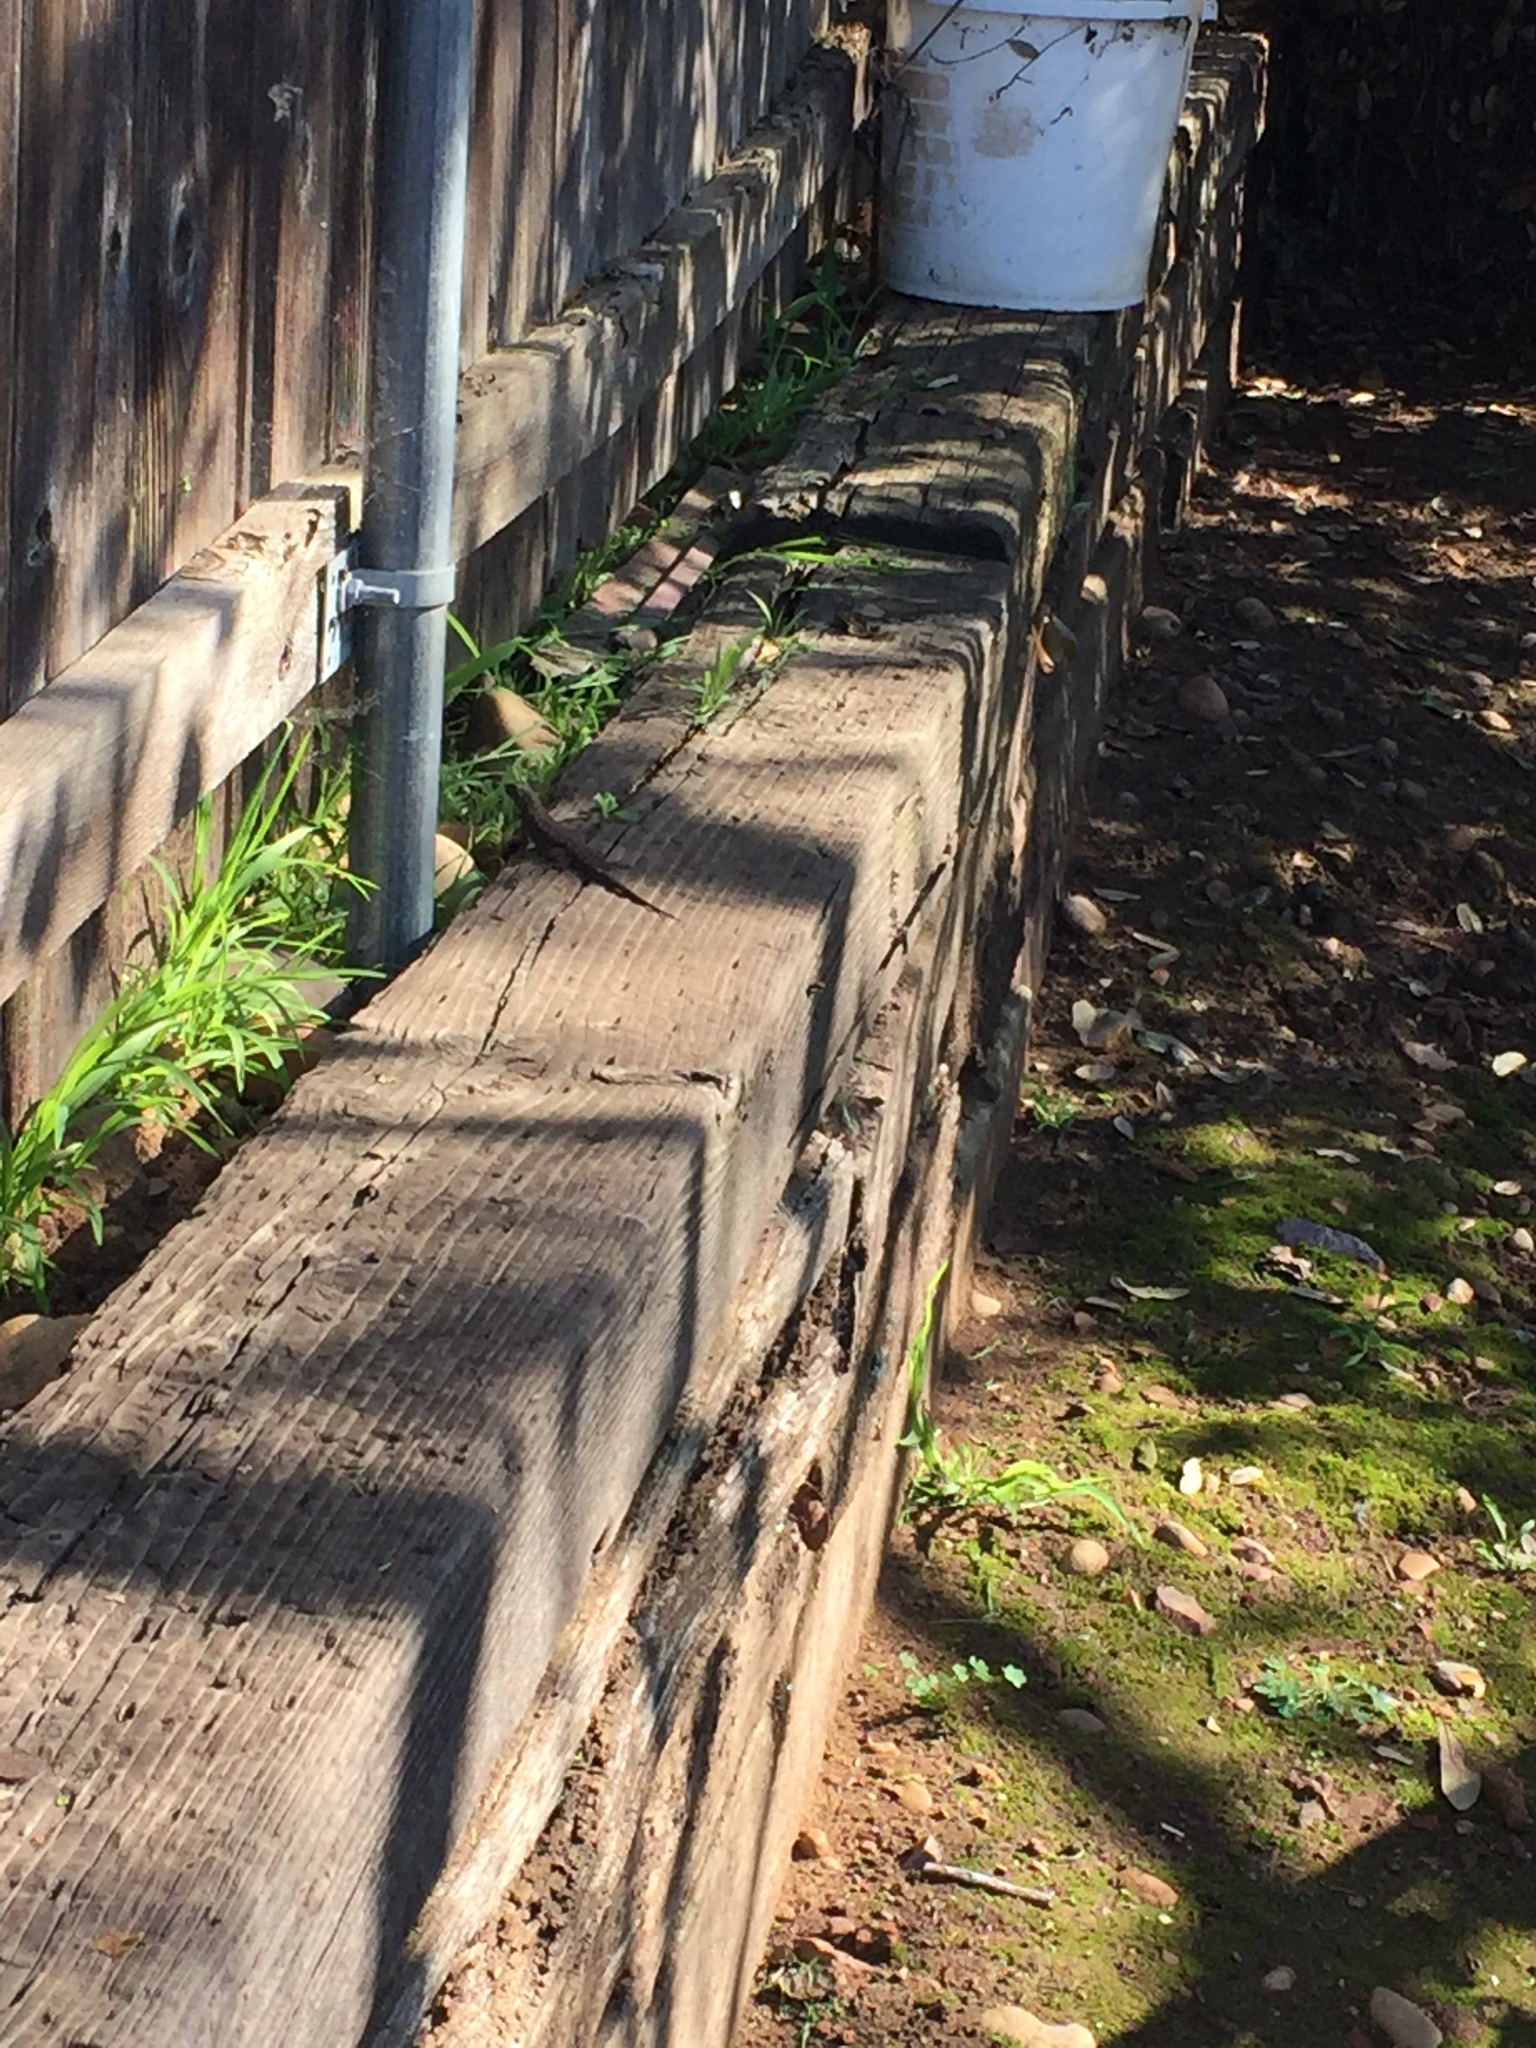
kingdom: Animalia
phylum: Chordata
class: Squamata
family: Phrynosomatidae
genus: Sceloporus
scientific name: Sceloporus occidentalis
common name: Western fence lizard
